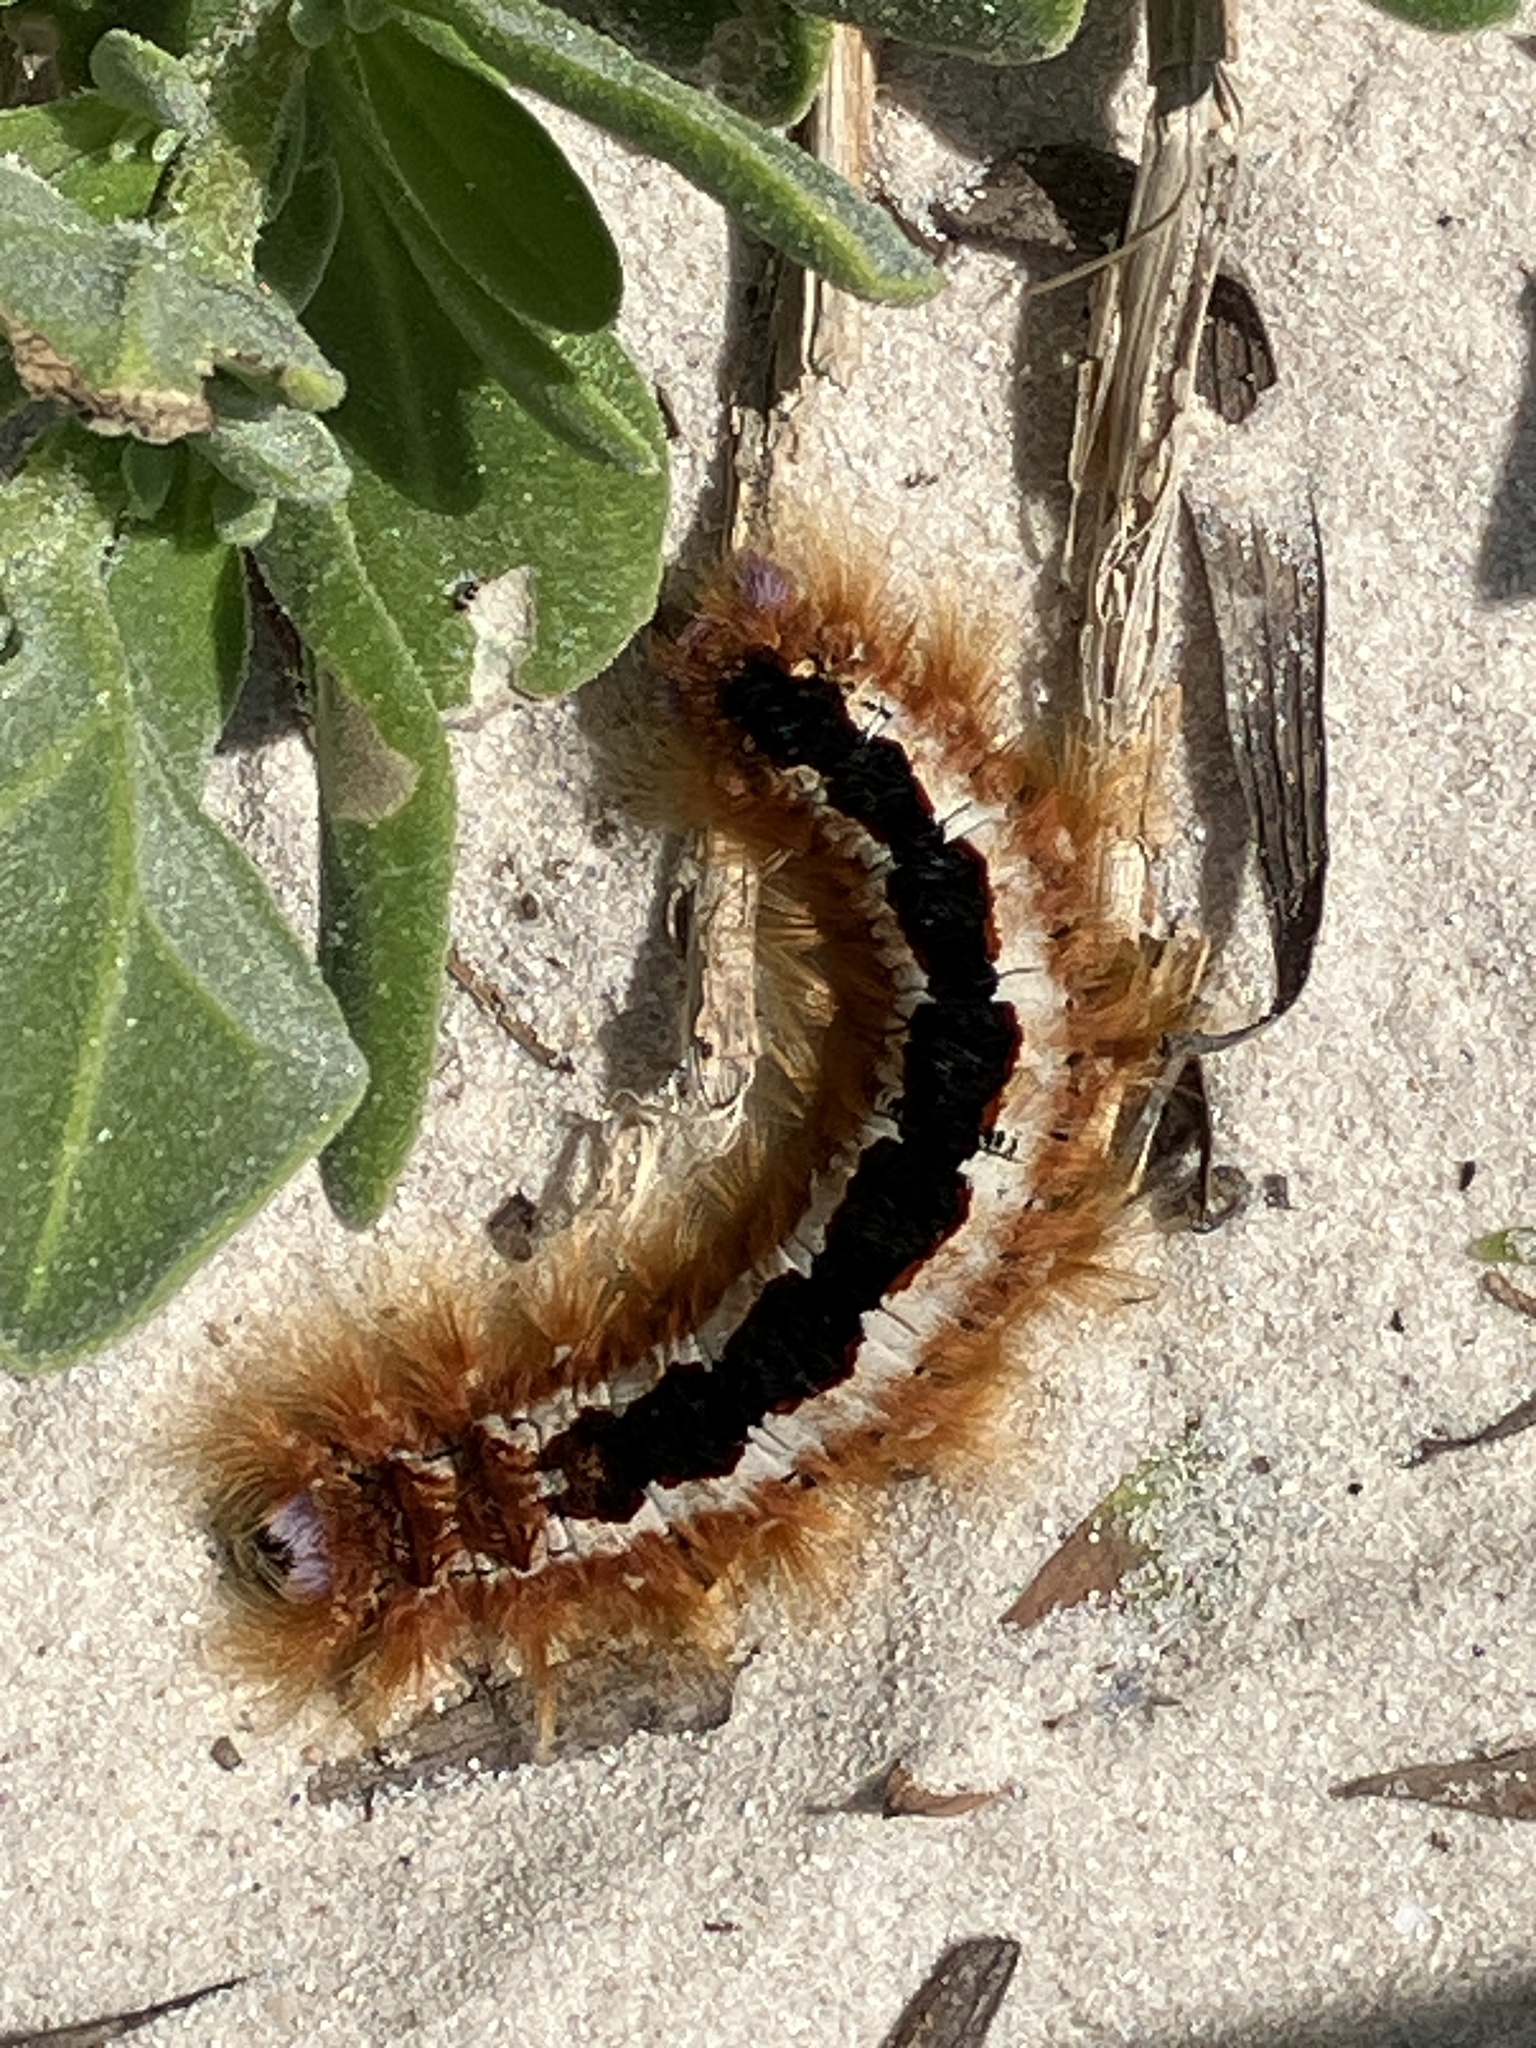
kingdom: Animalia
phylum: Arthropoda
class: Insecta
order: Lepidoptera
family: Lasiocampidae
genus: Eutricha
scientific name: Eutricha capensis
